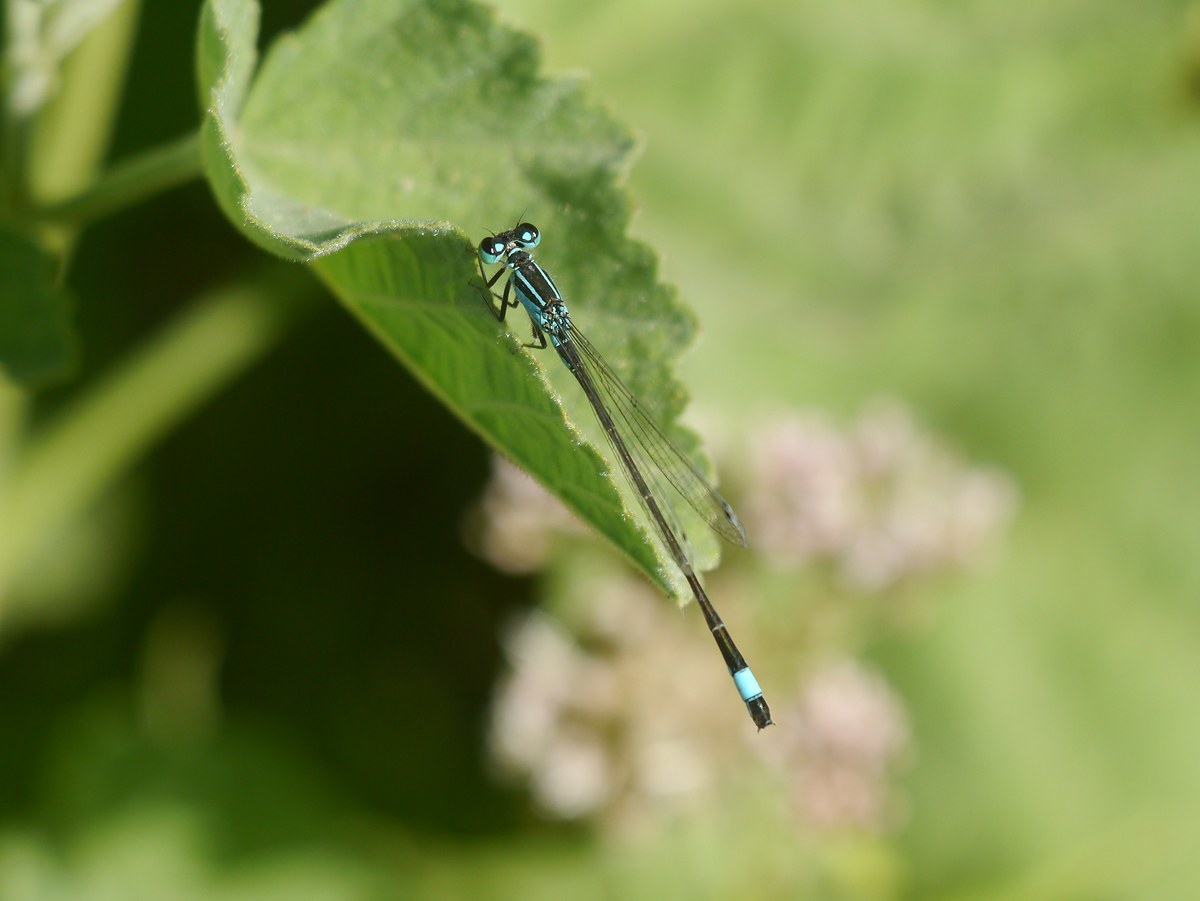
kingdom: Animalia
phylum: Arthropoda
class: Insecta
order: Odonata
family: Coenagrionidae
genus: Ischnura
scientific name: Ischnura elegans
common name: Blue-tailed damselfly
